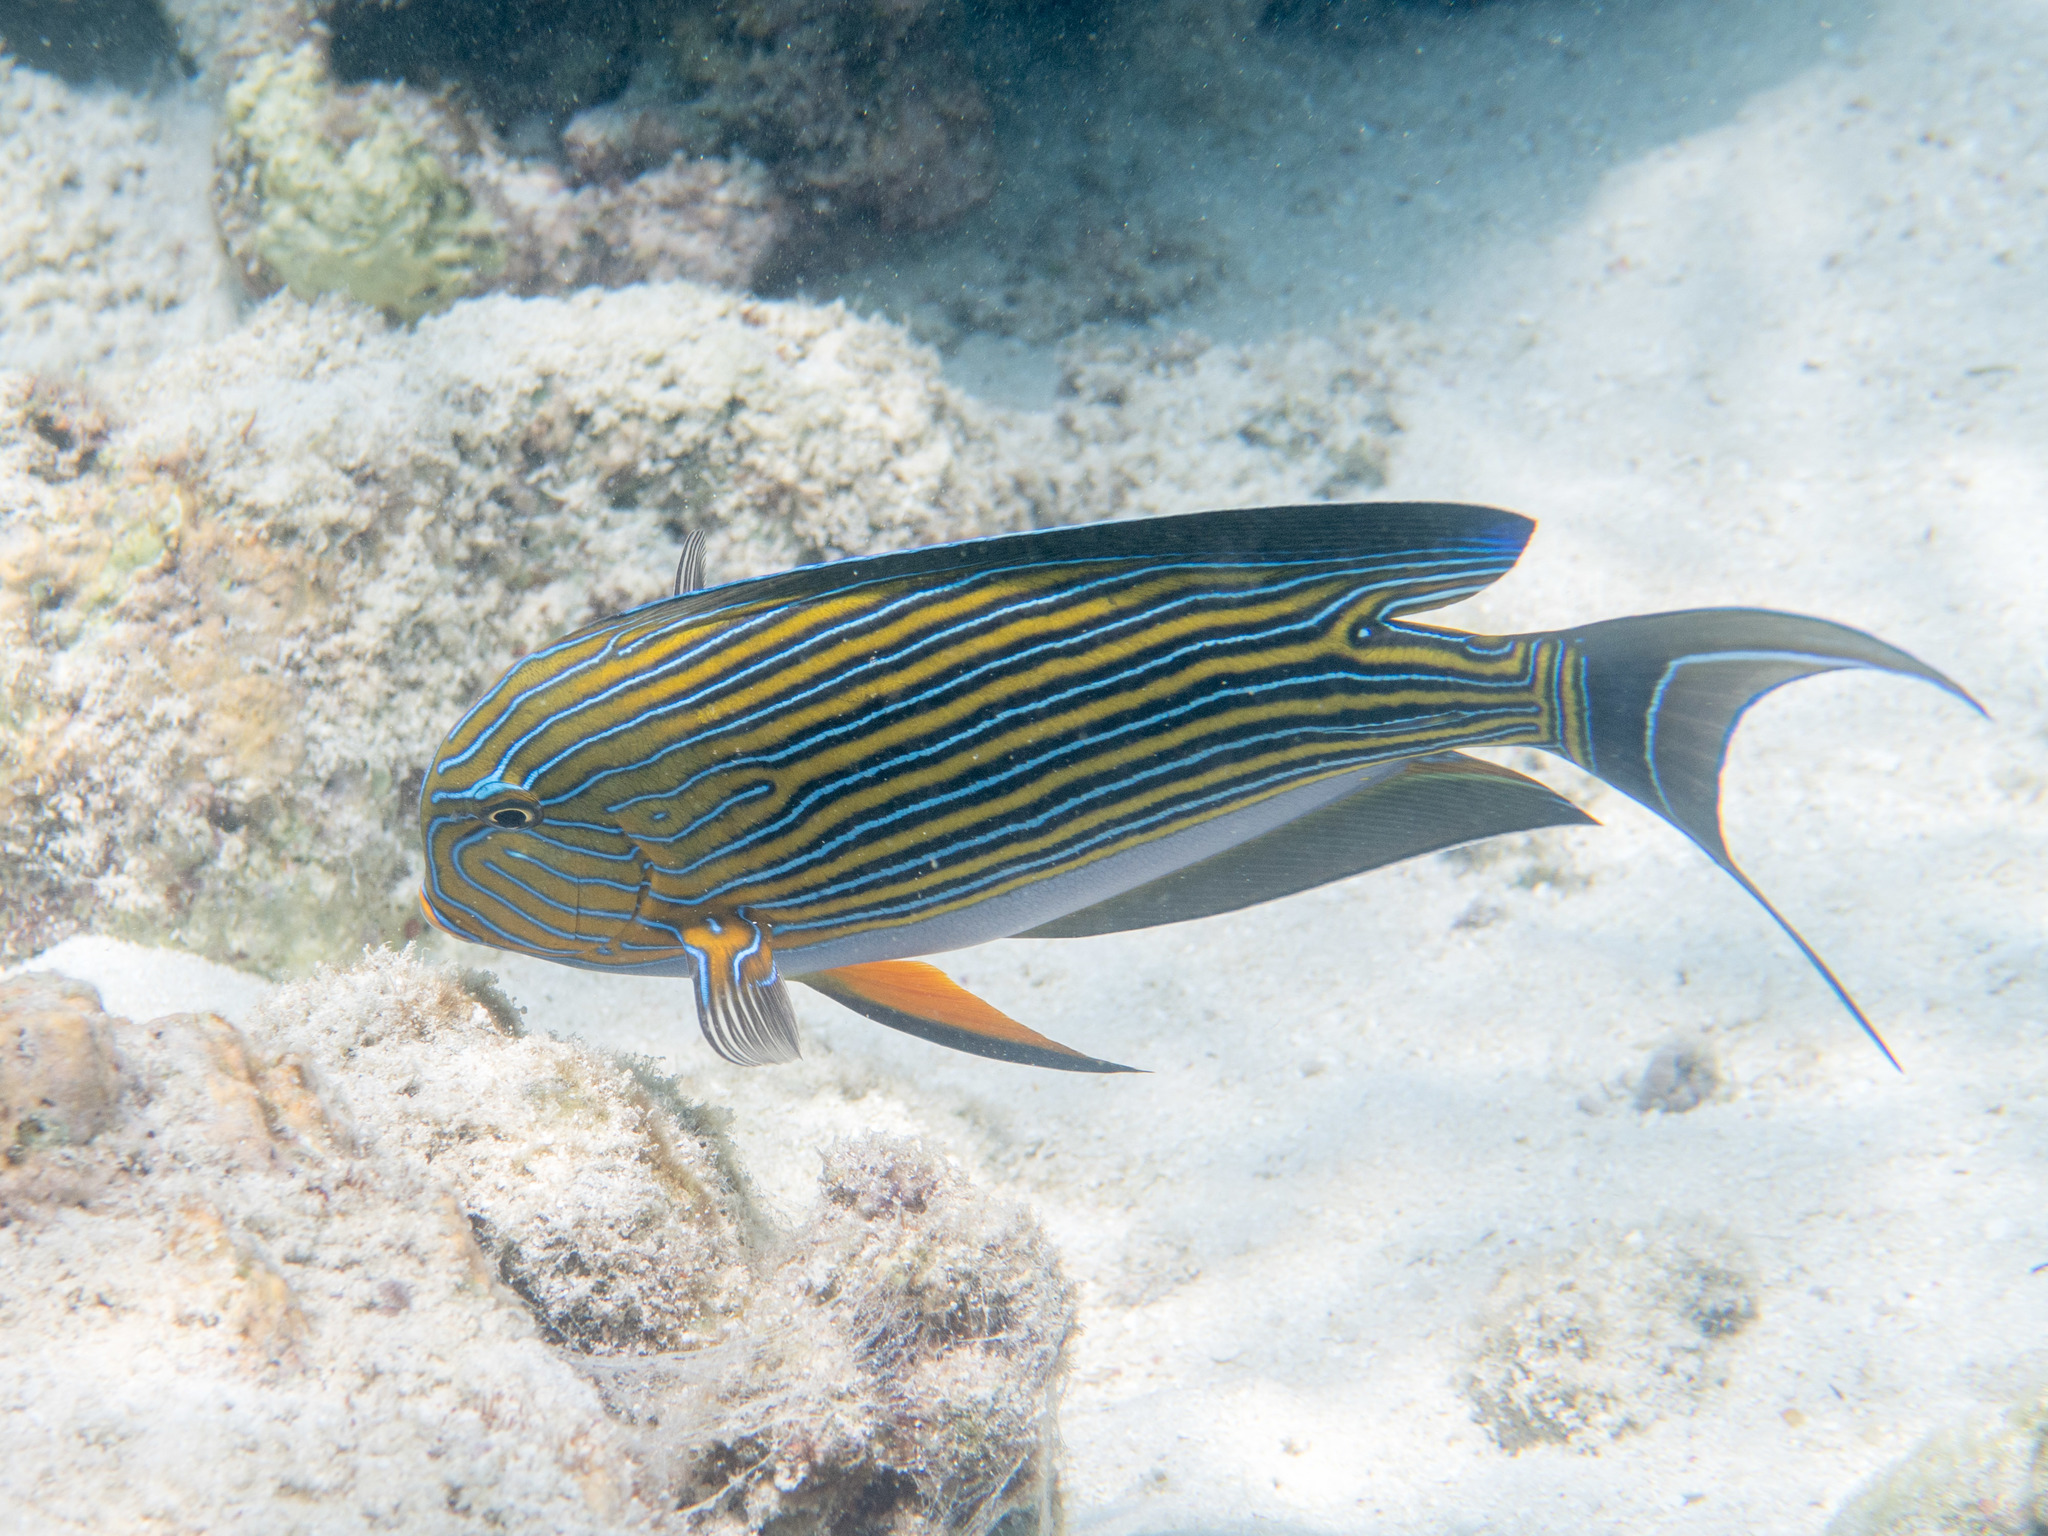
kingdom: Animalia
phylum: Chordata
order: Perciformes
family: Acanthuridae
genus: Acanthurus
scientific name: Acanthurus lineatus
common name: Striped surgeonfish
